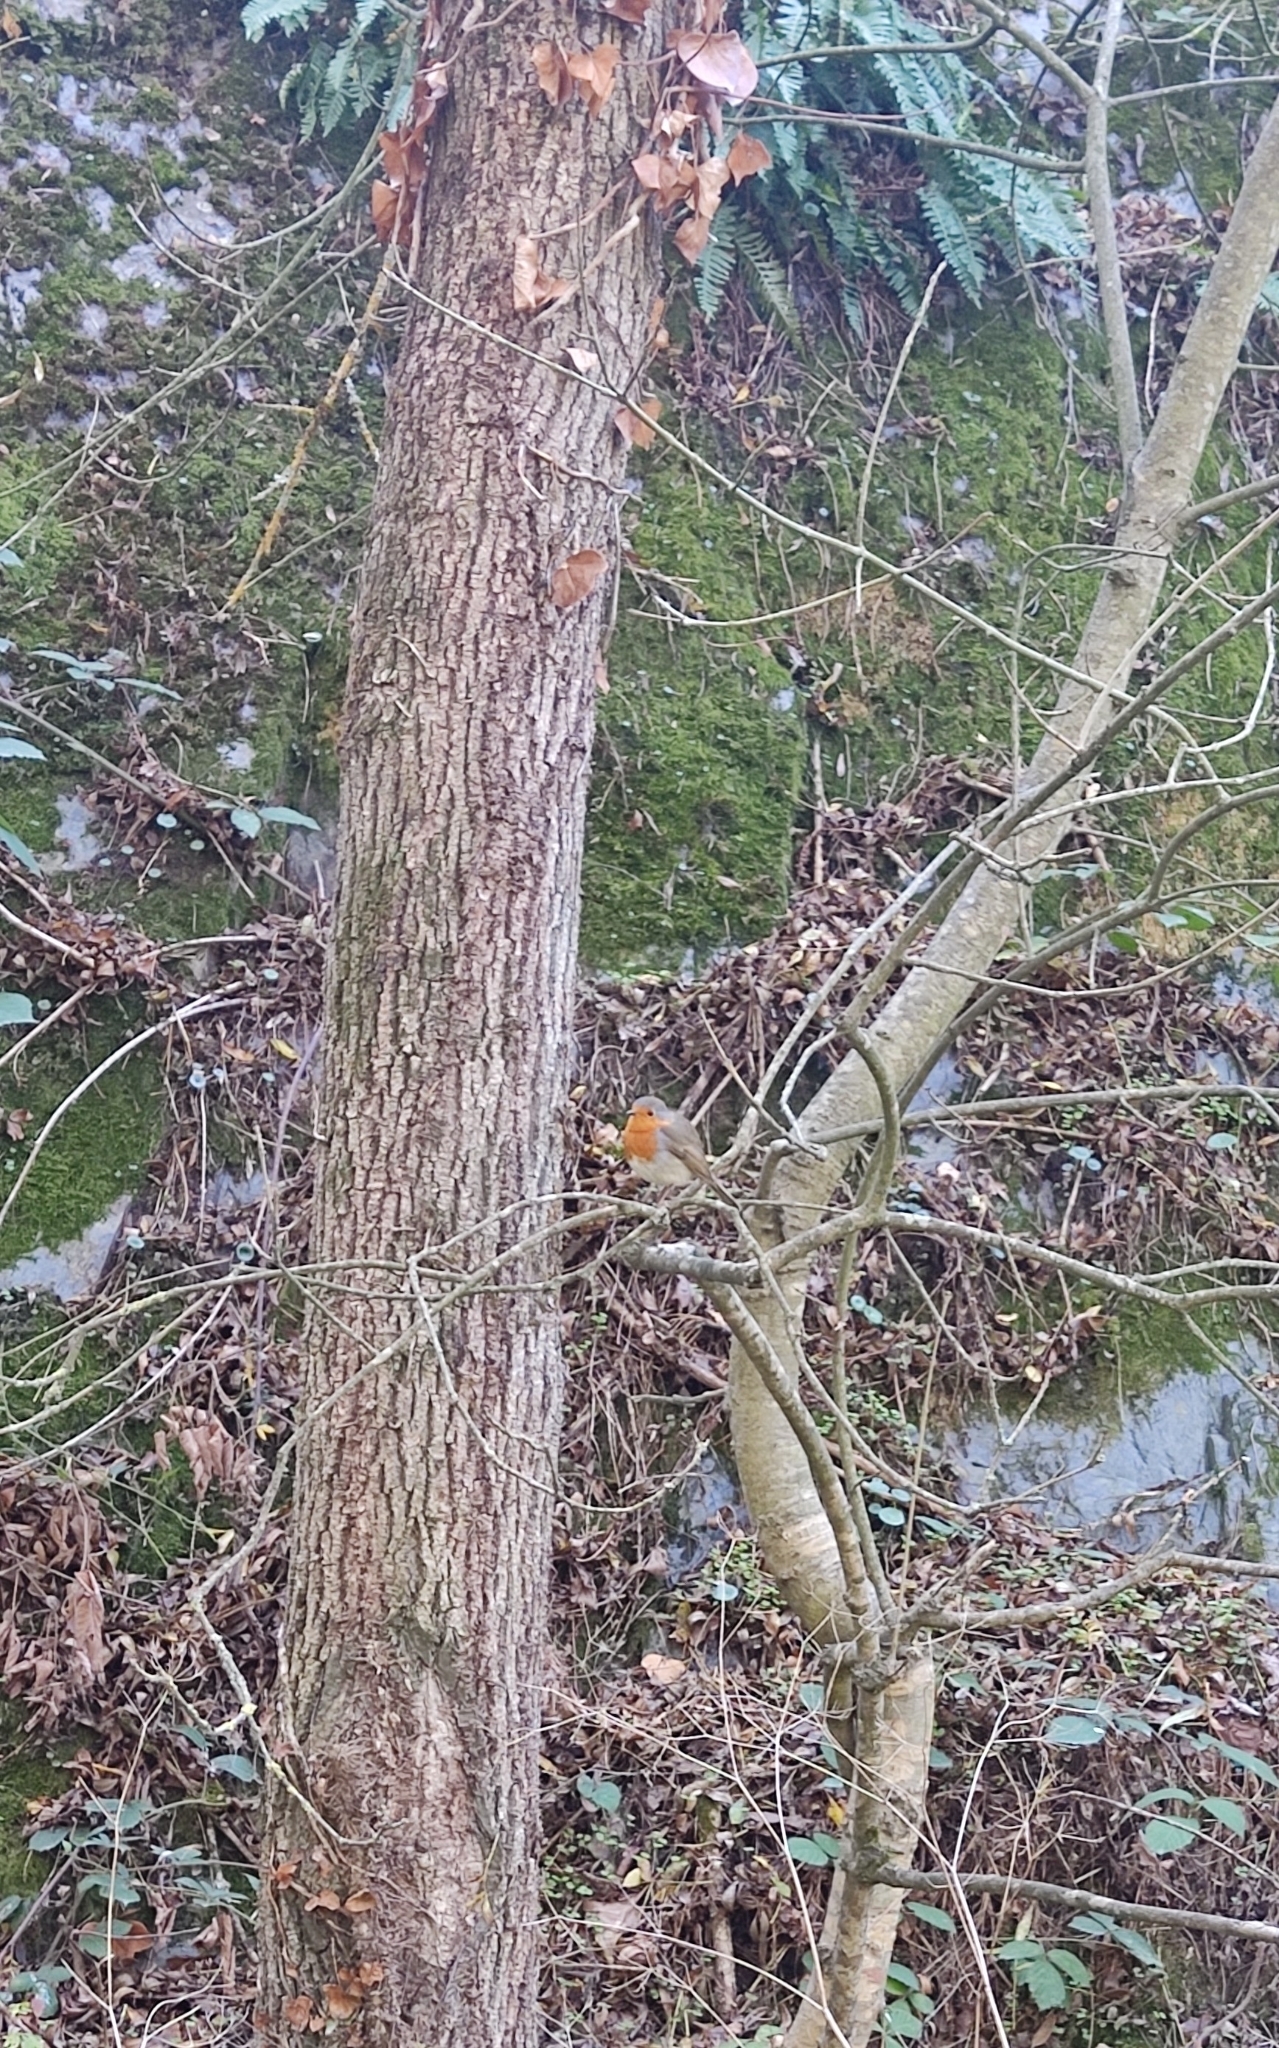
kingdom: Animalia
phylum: Chordata
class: Aves
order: Passeriformes
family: Muscicapidae
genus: Erithacus
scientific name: Erithacus rubecula
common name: European robin
